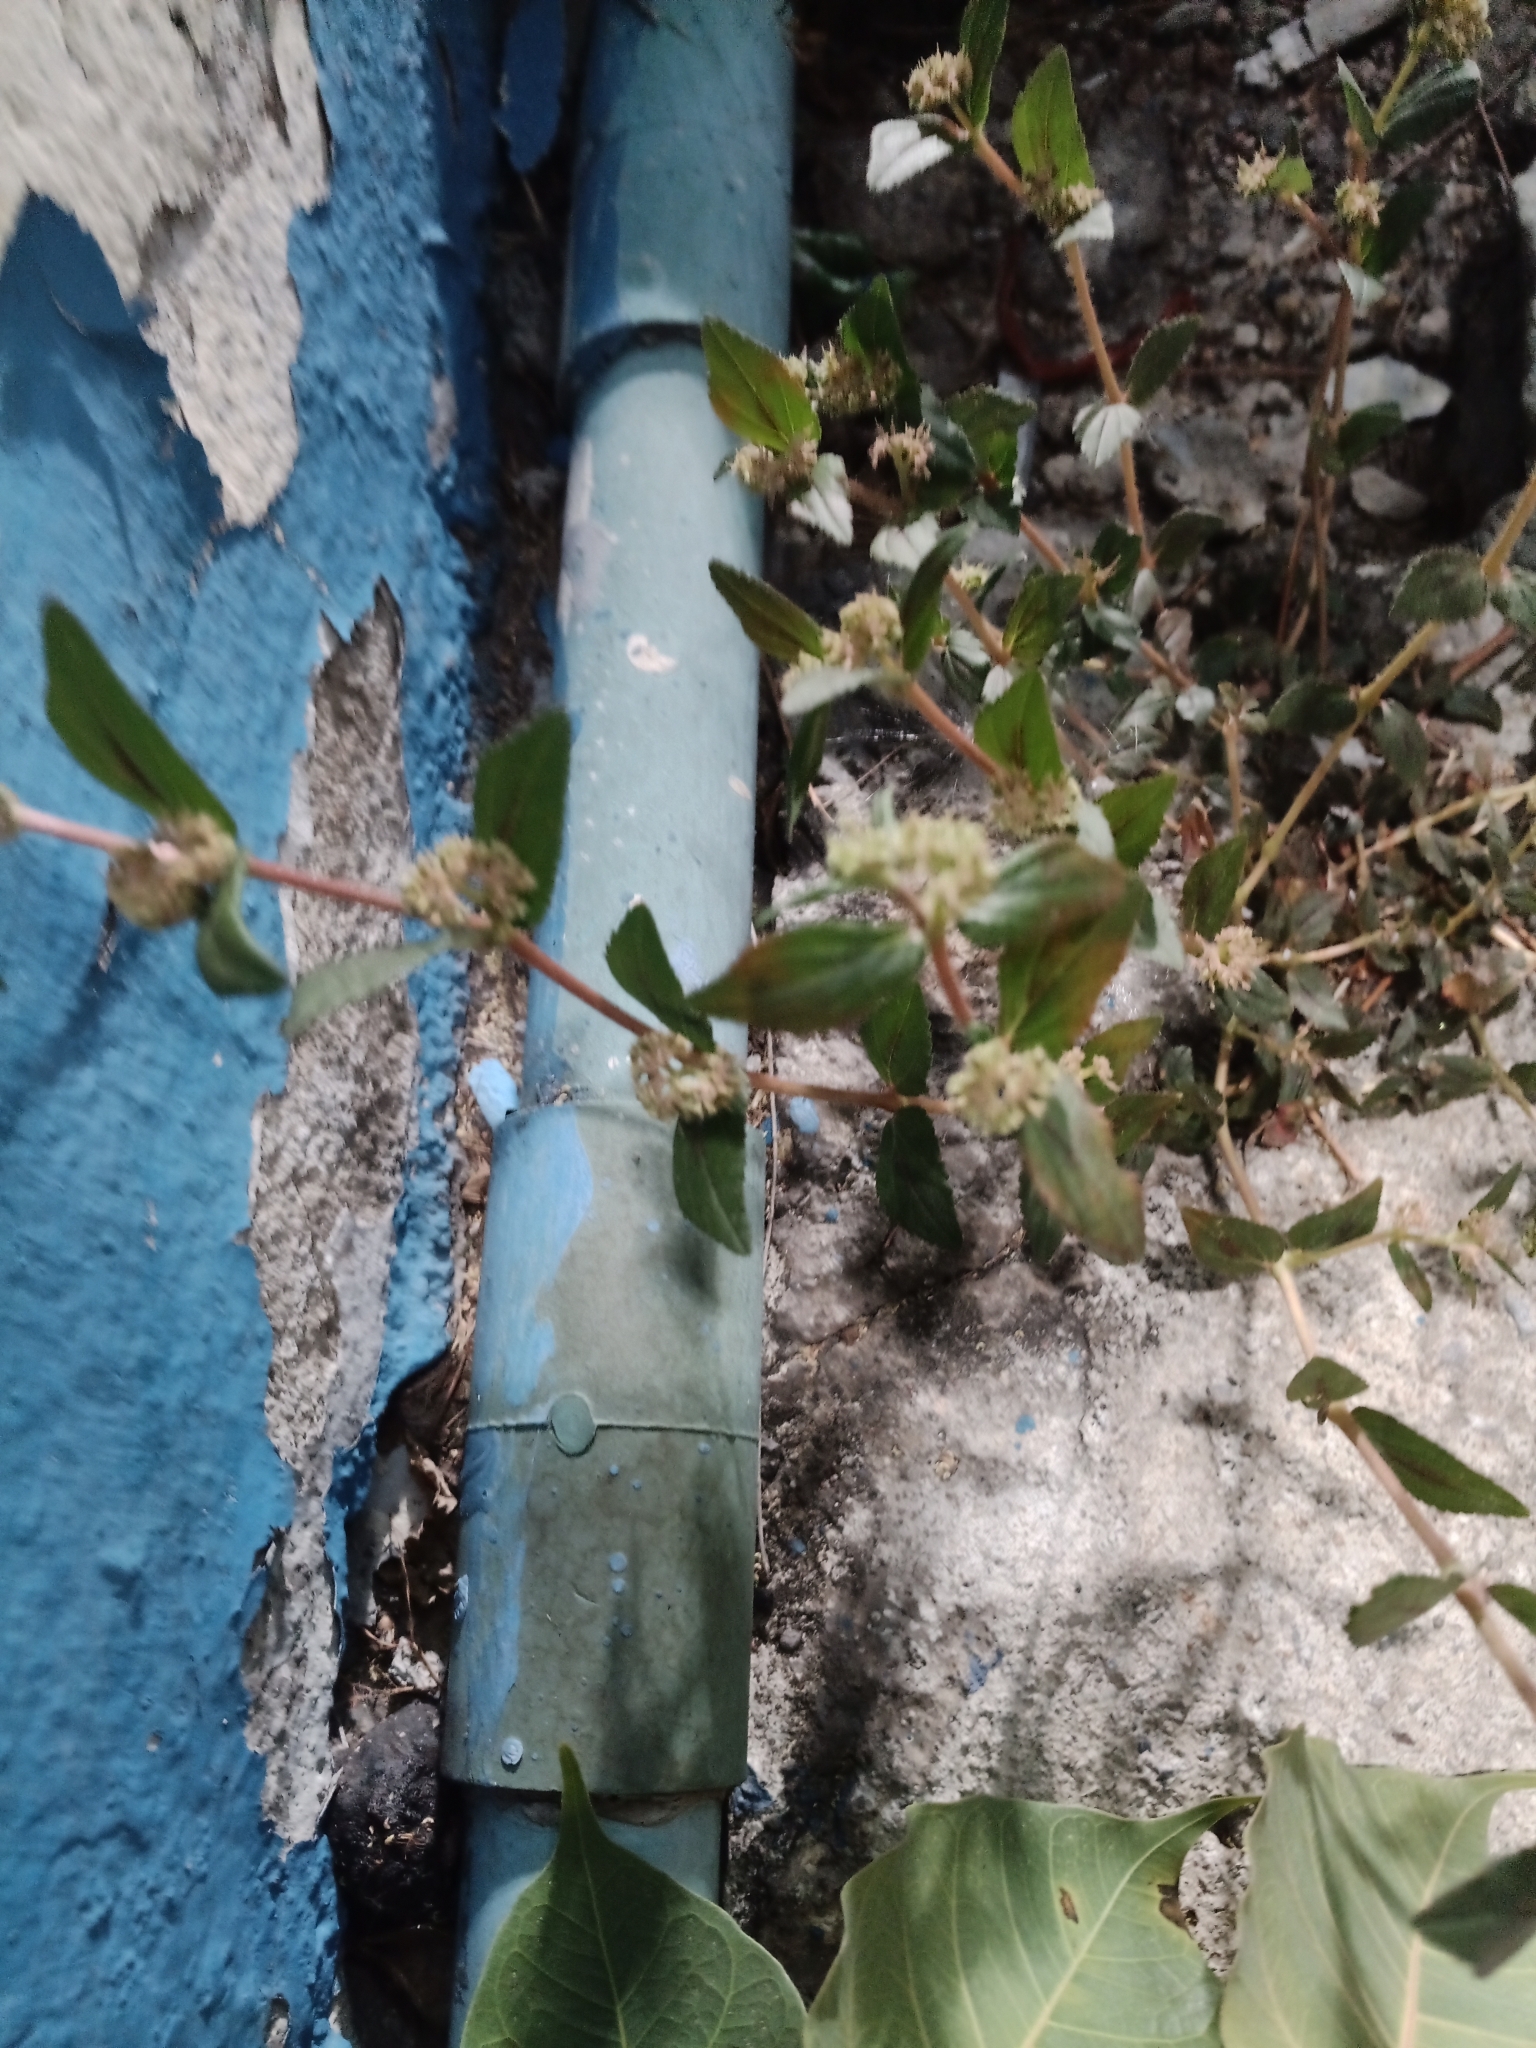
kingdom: Plantae
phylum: Tracheophyta
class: Magnoliopsida
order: Malpighiales
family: Euphorbiaceae
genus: Euphorbia
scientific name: Euphorbia hirta
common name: Pillpod sandmat
